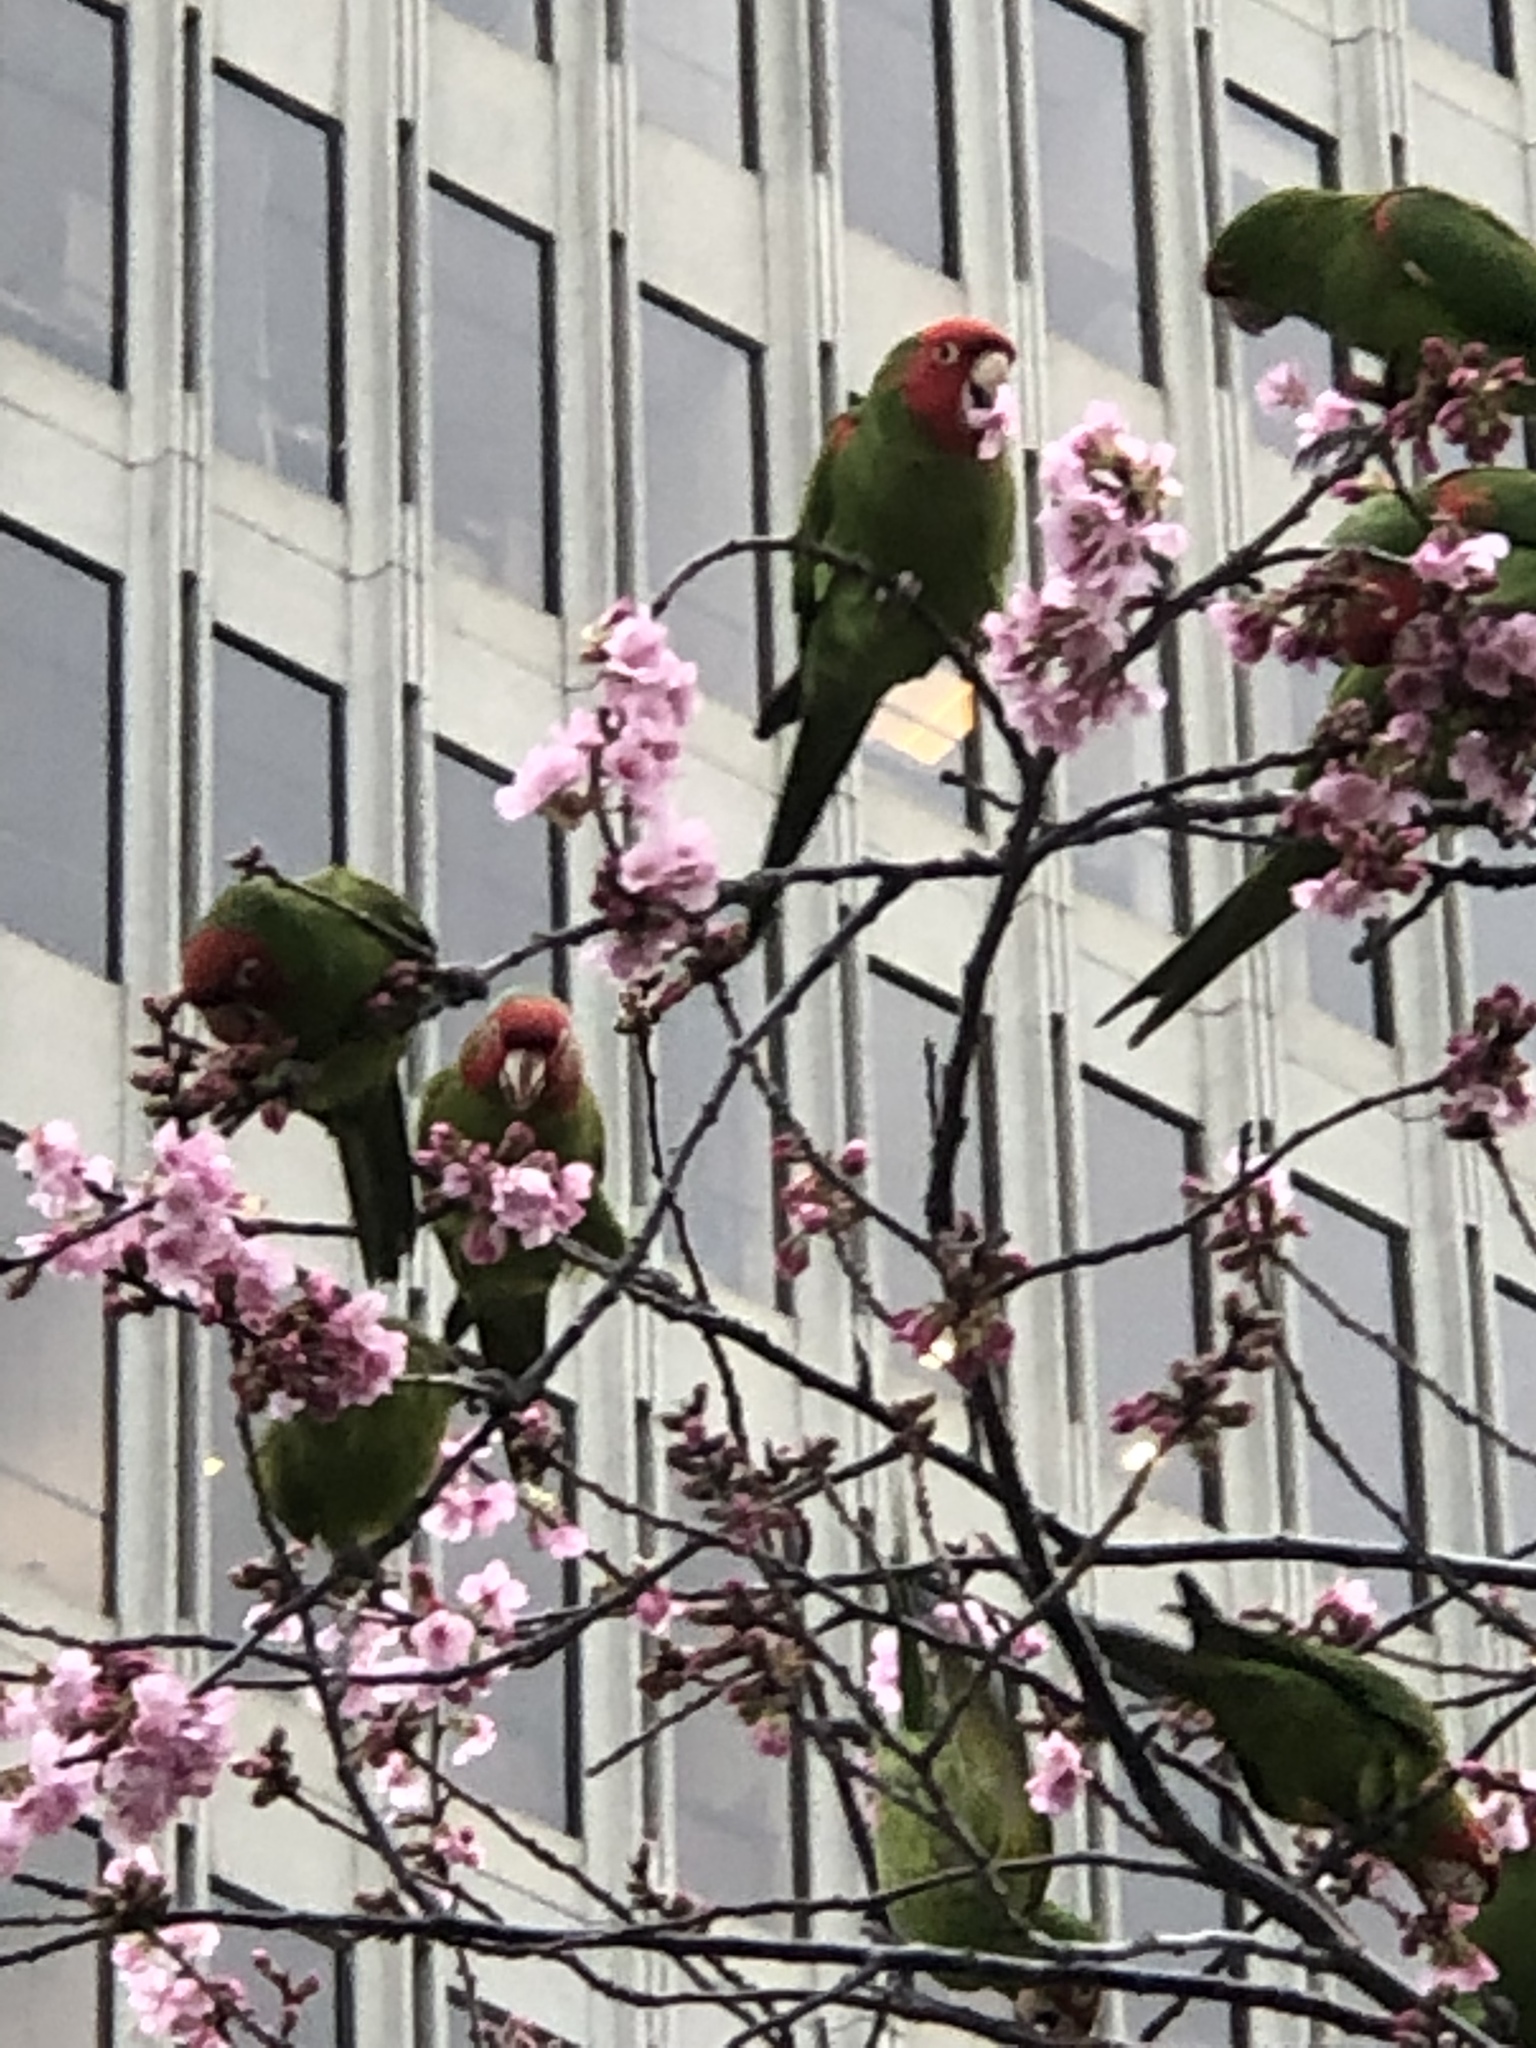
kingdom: Animalia
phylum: Chordata
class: Aves
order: Psittaciformes
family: Psittacidae
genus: Aratinga
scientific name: Aratinga erythrogenys
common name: Red-masked parakeet
